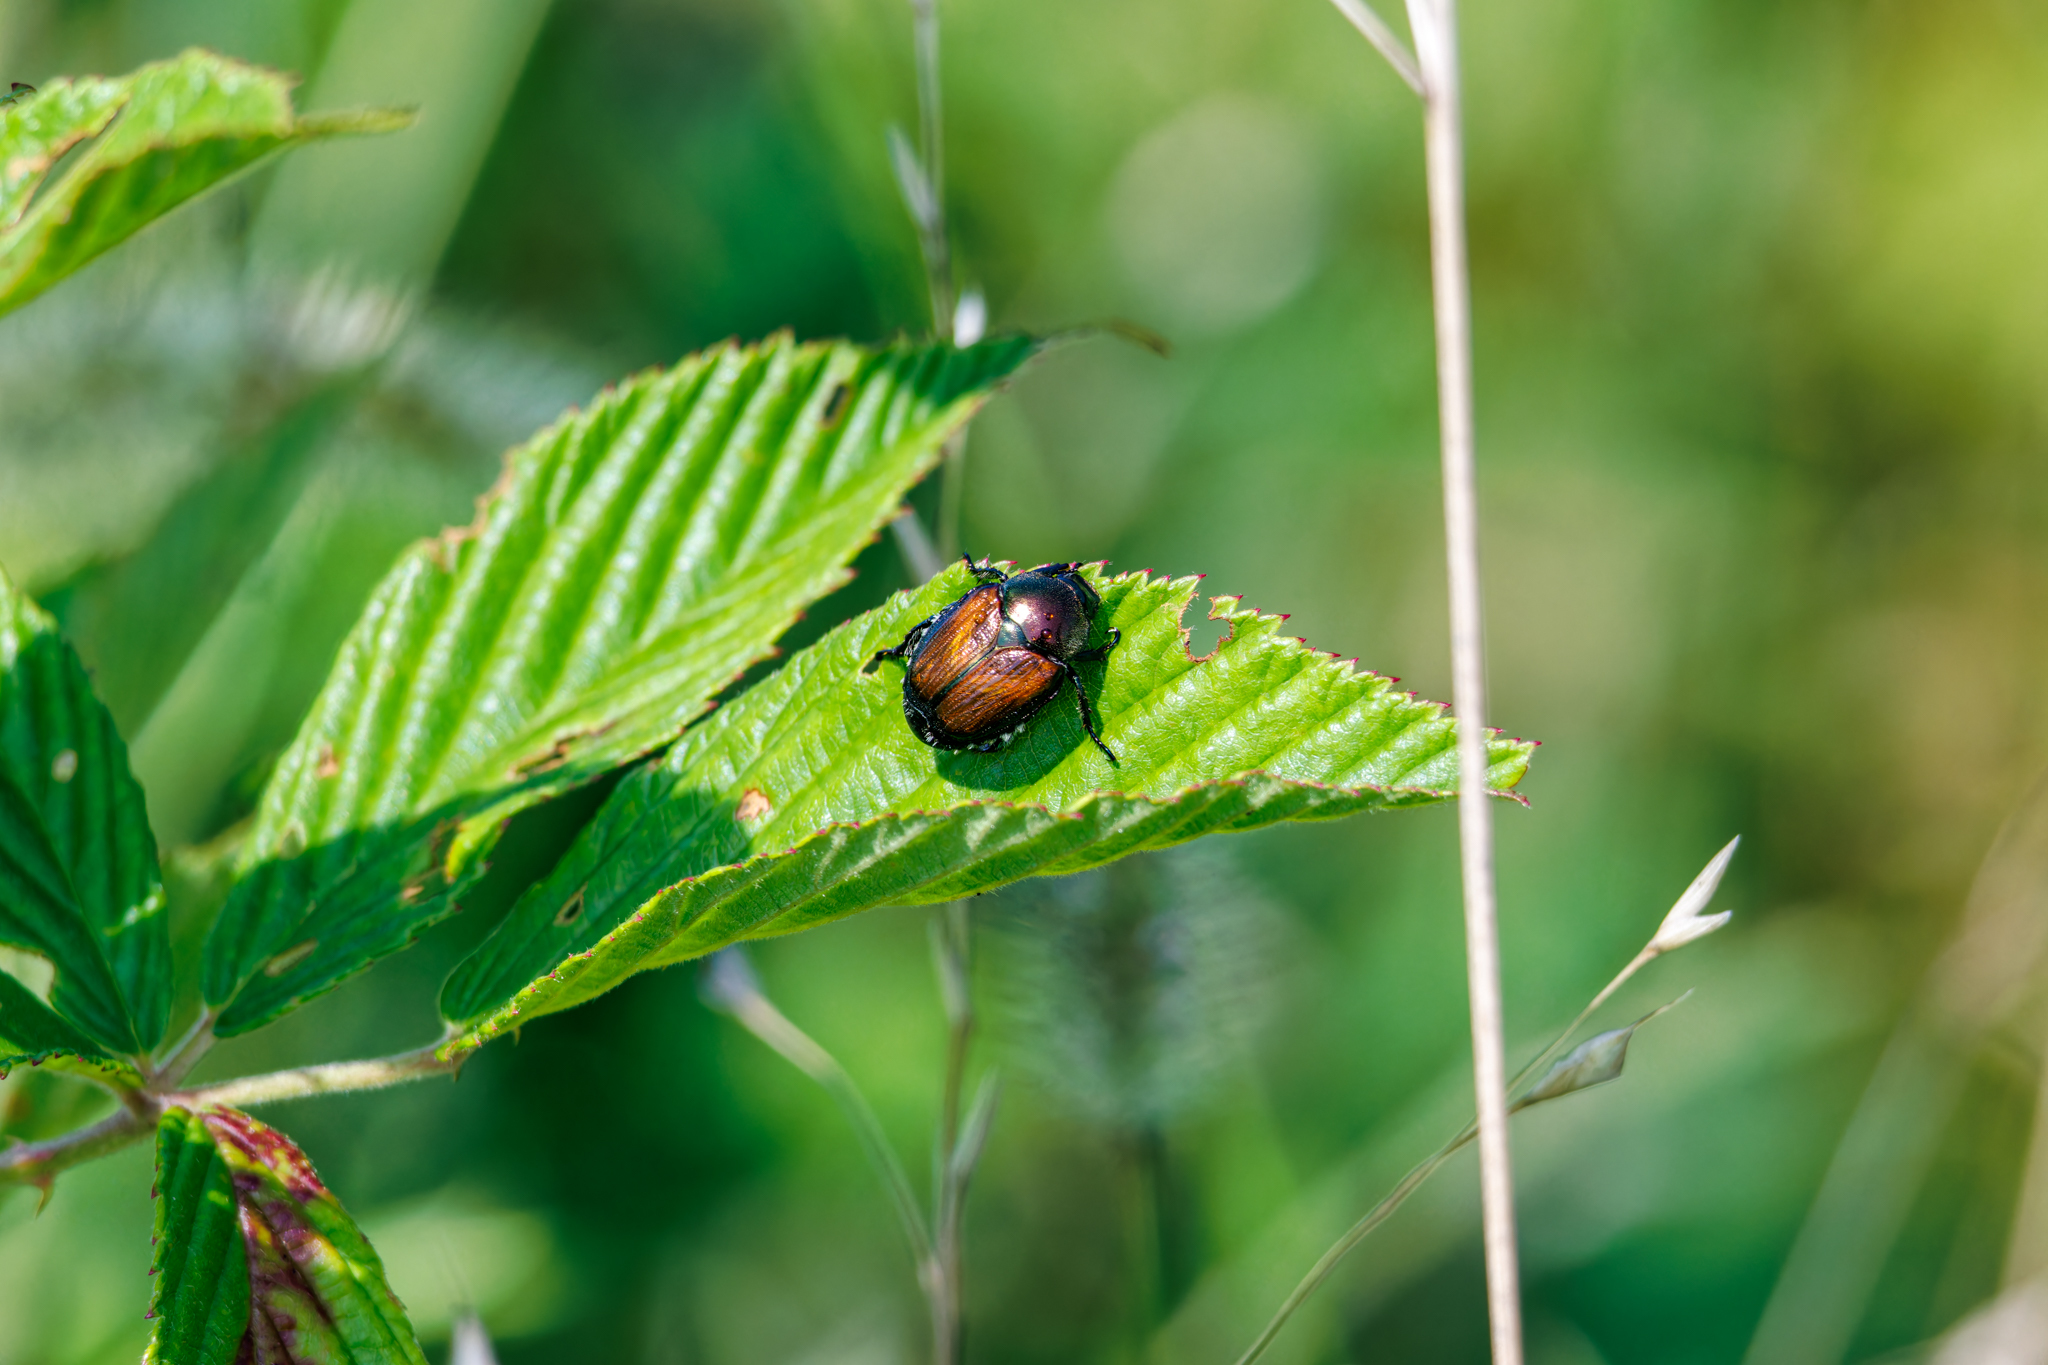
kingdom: Animalia
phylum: Arthropoda
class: Insecta
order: Coleoptera
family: Scarabaeidae
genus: Popillia
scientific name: Popillia japonica
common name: Japanese beetle
